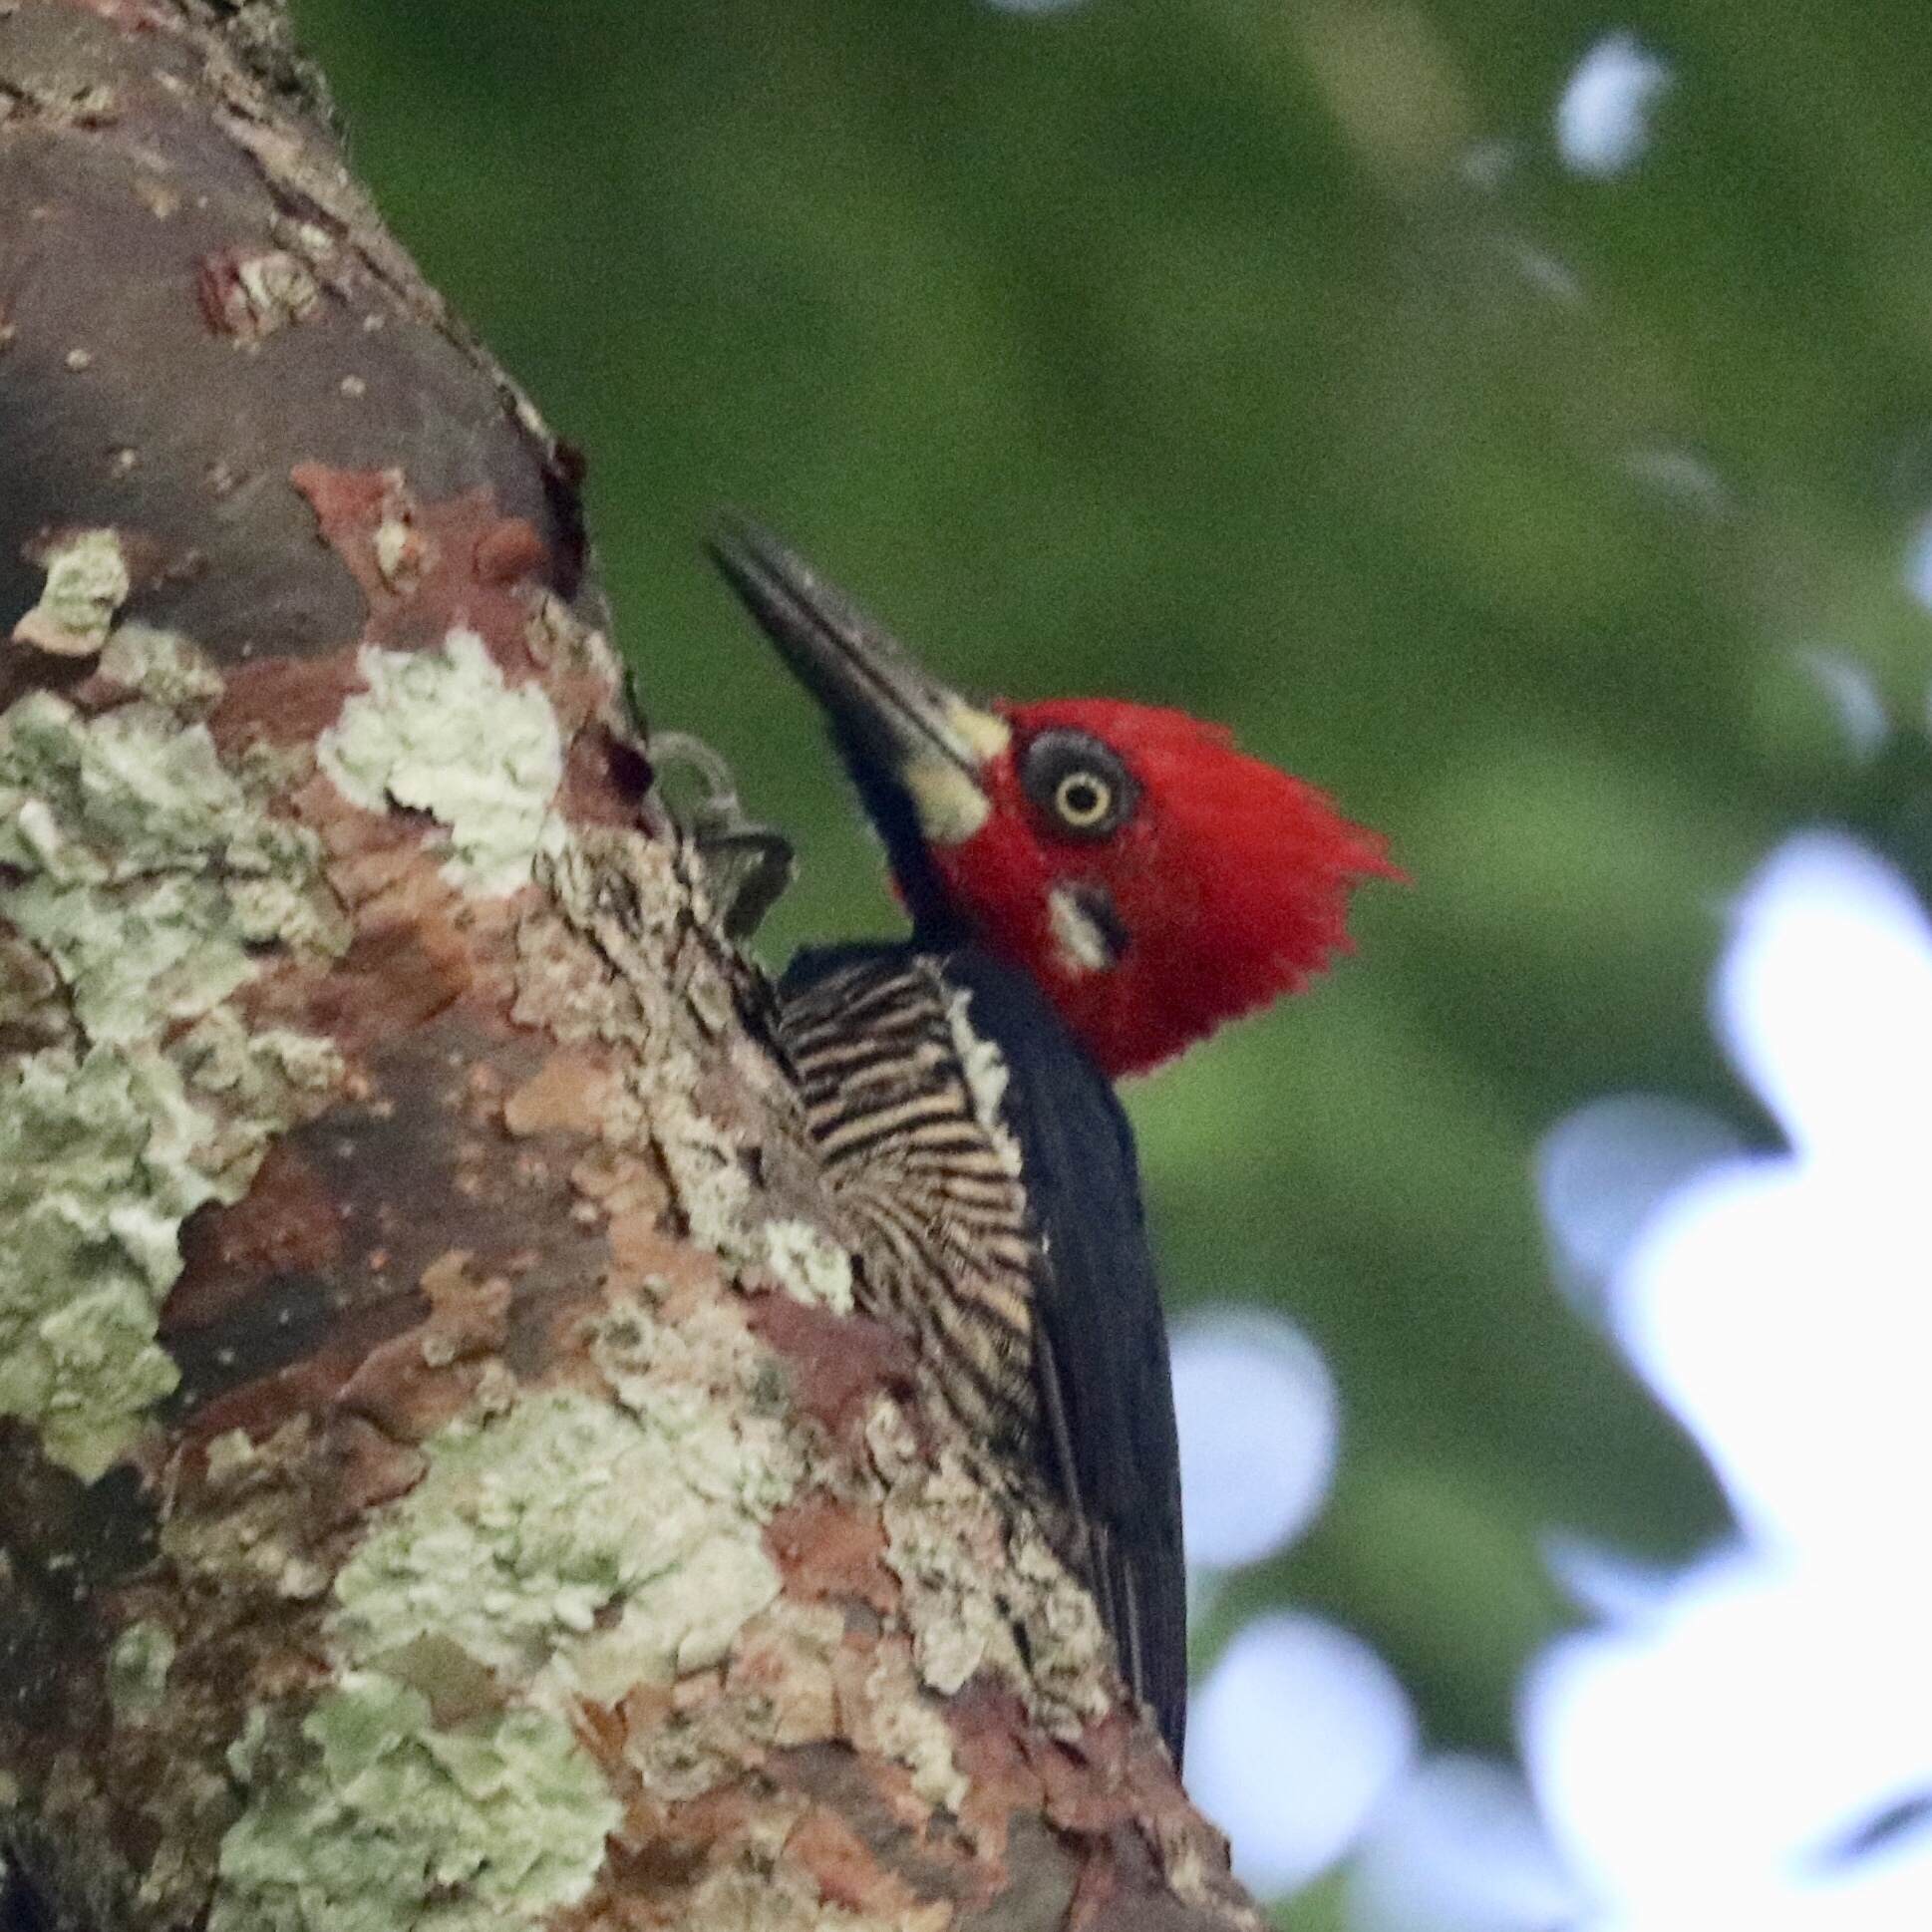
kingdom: Animalia
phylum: Chordata
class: Aves
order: Piciformes
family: Picidae
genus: Campephilus
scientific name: Campephilus melanoleucos
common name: Crimson-crested woodpecker
